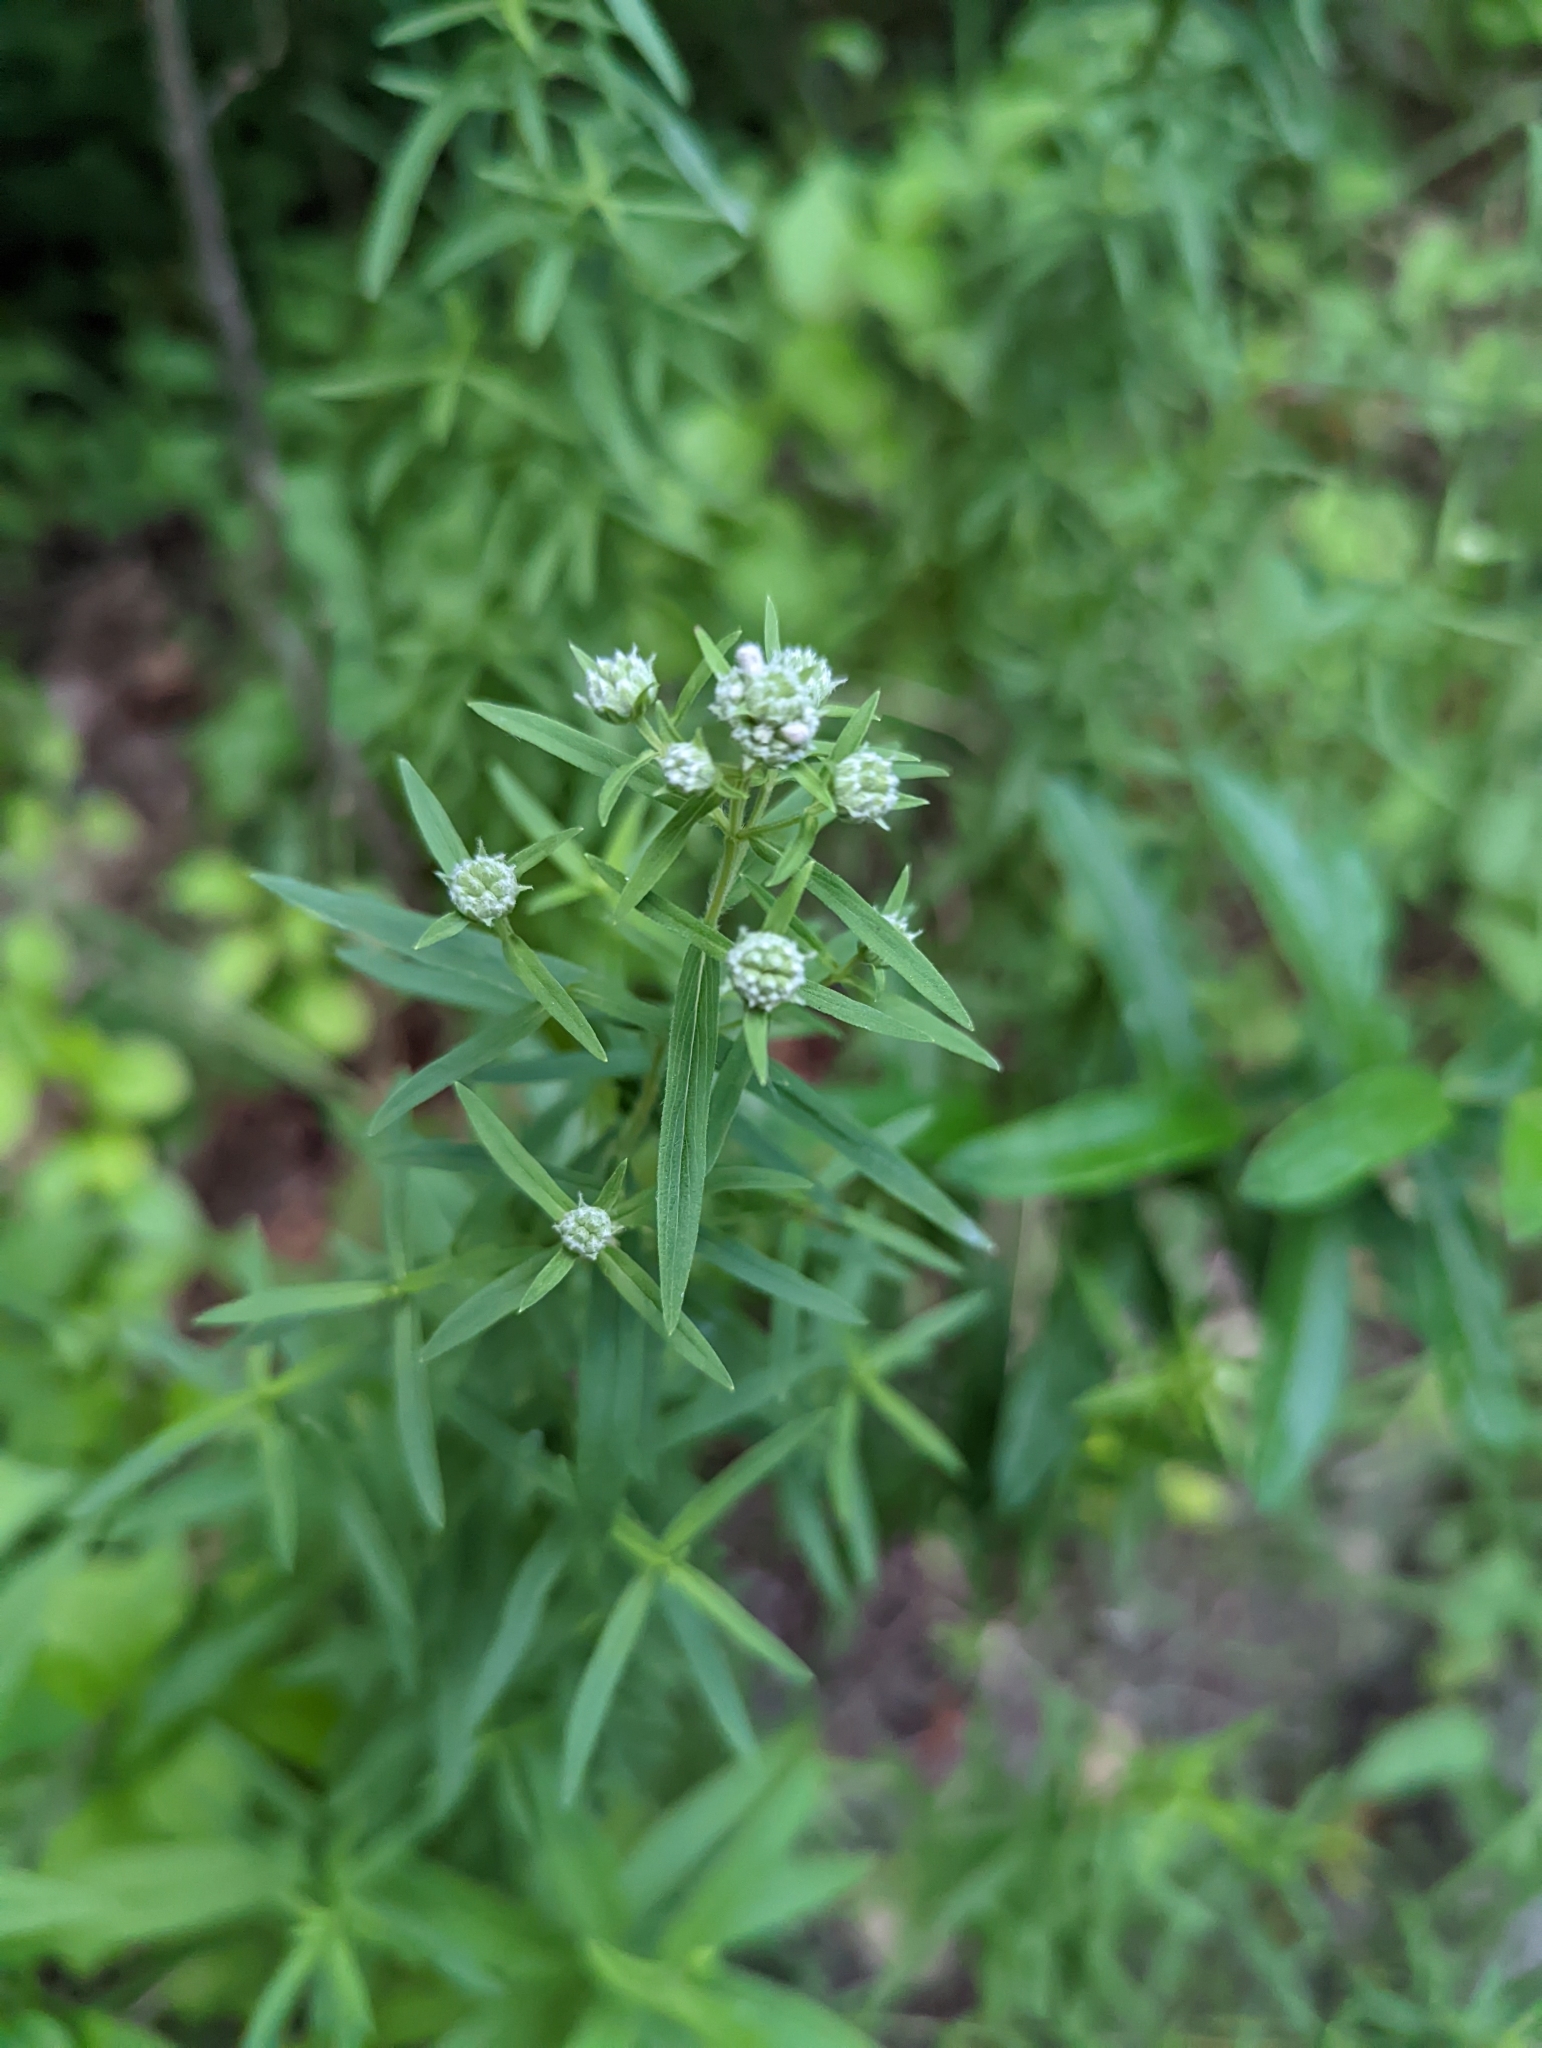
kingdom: Plantae
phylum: Tracheophyta
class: Magnoliopsida
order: Lamiales
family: Lamiaceae
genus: Pycnanthemum
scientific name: Pycnanthemum virginianum
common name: Virginia mountain-mint
